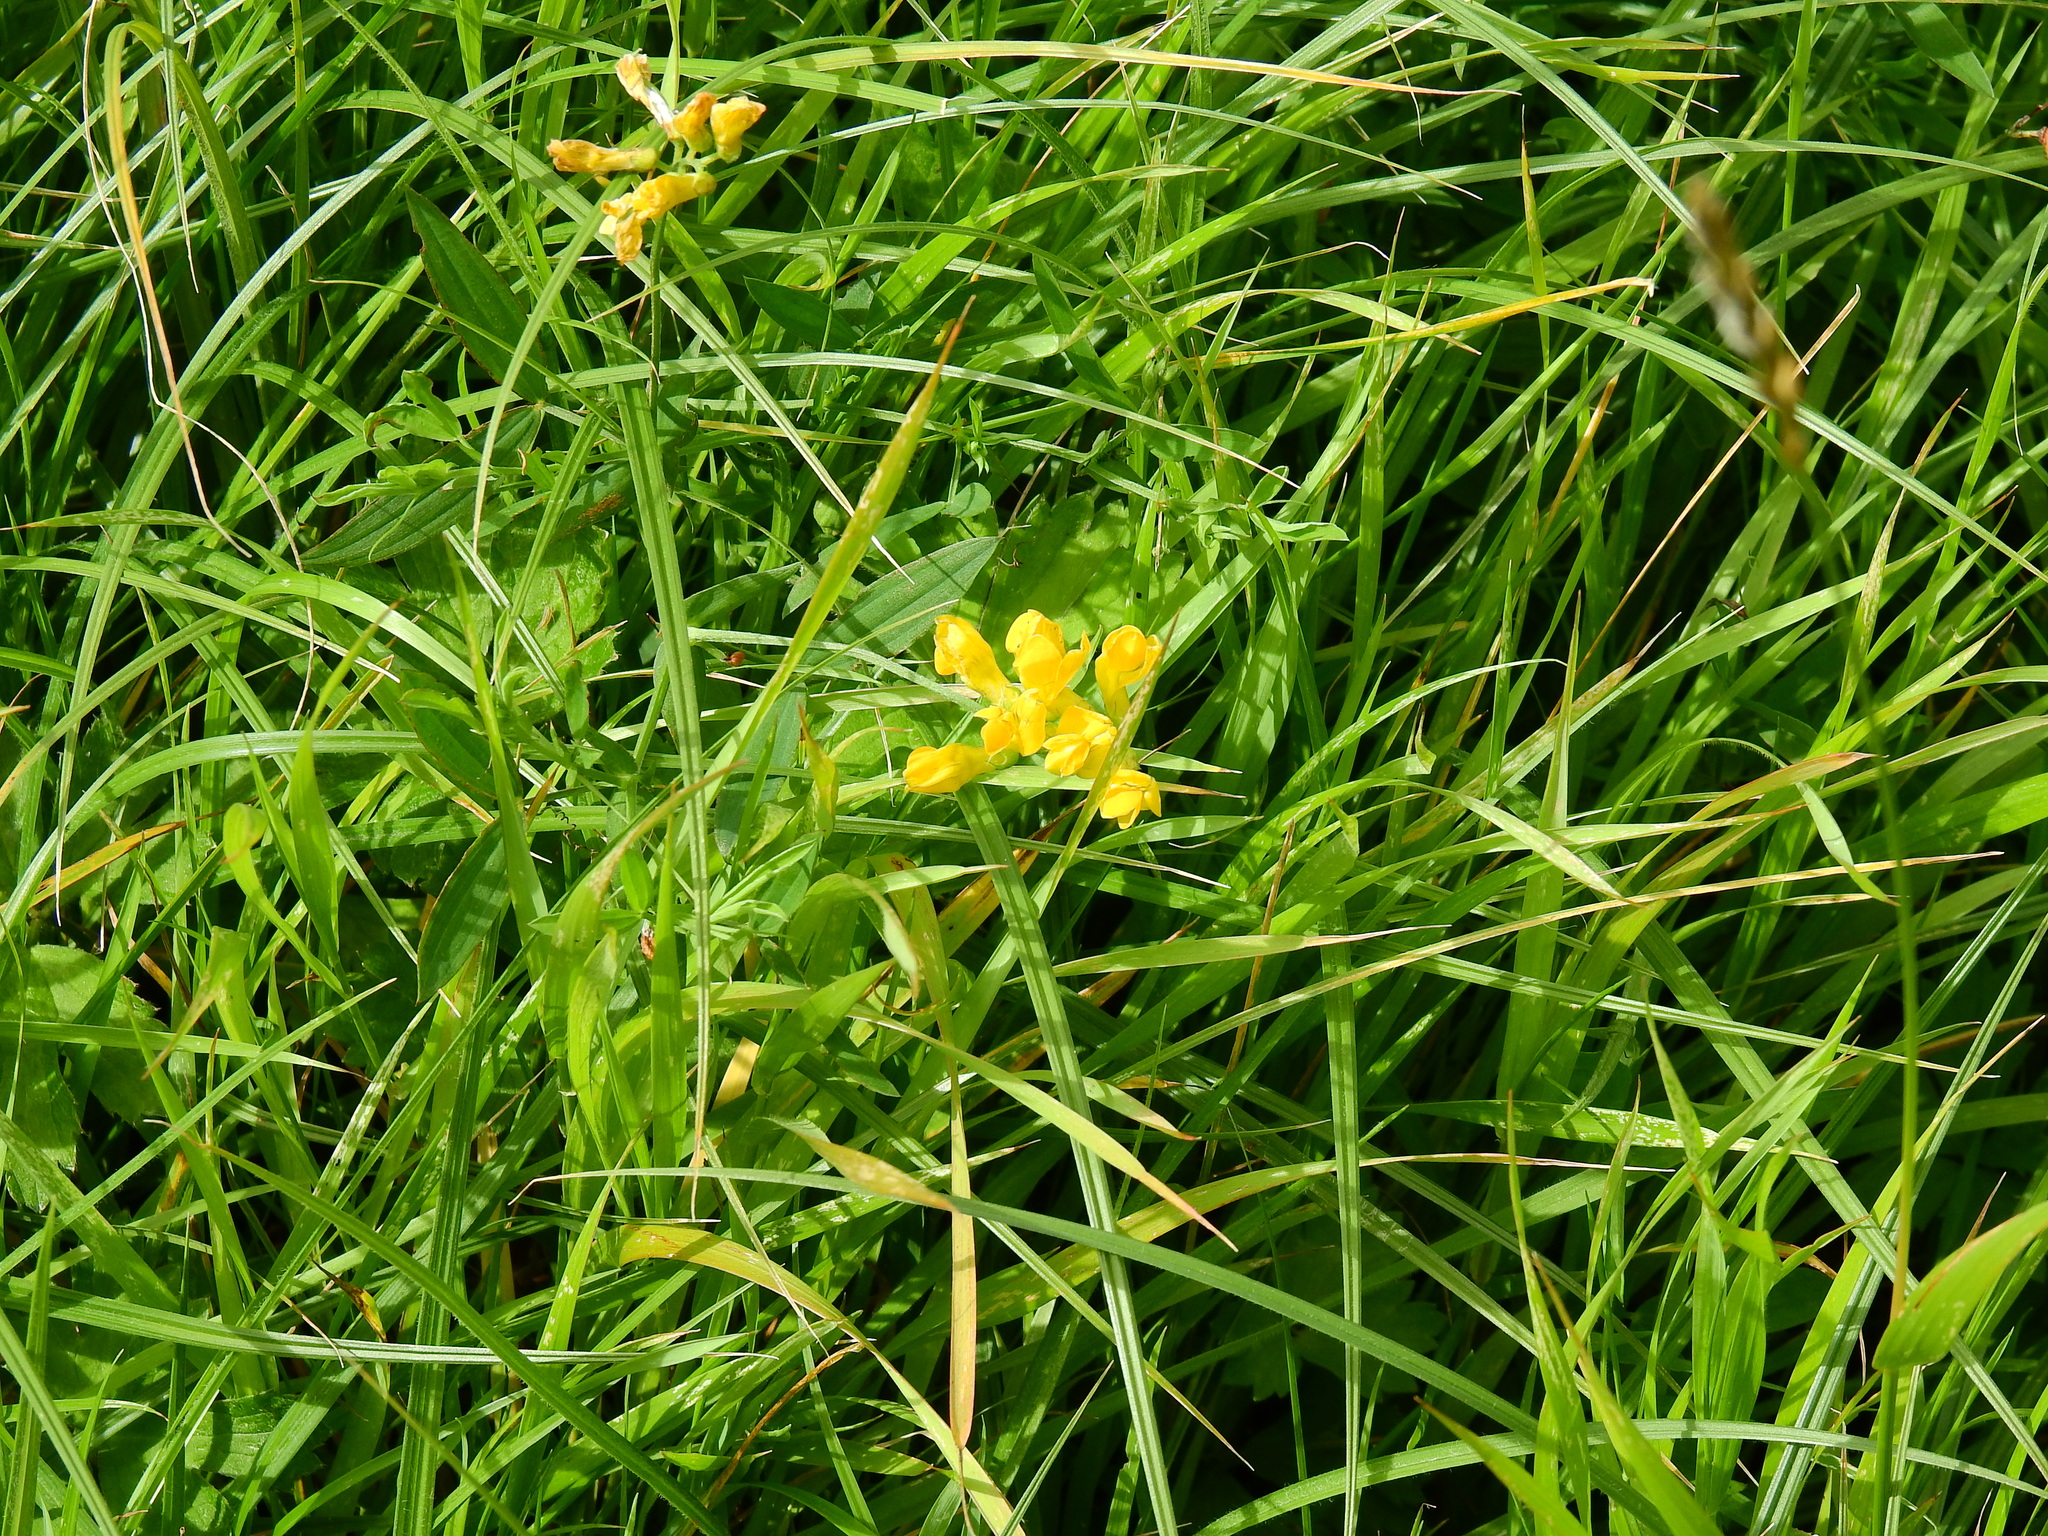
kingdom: Plantae
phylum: Tracheophyta
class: Magnoliopsida
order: Fabales
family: Fabaceae
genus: Lathyrus
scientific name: Lathyrus pratensis
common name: Meadow vetchling
